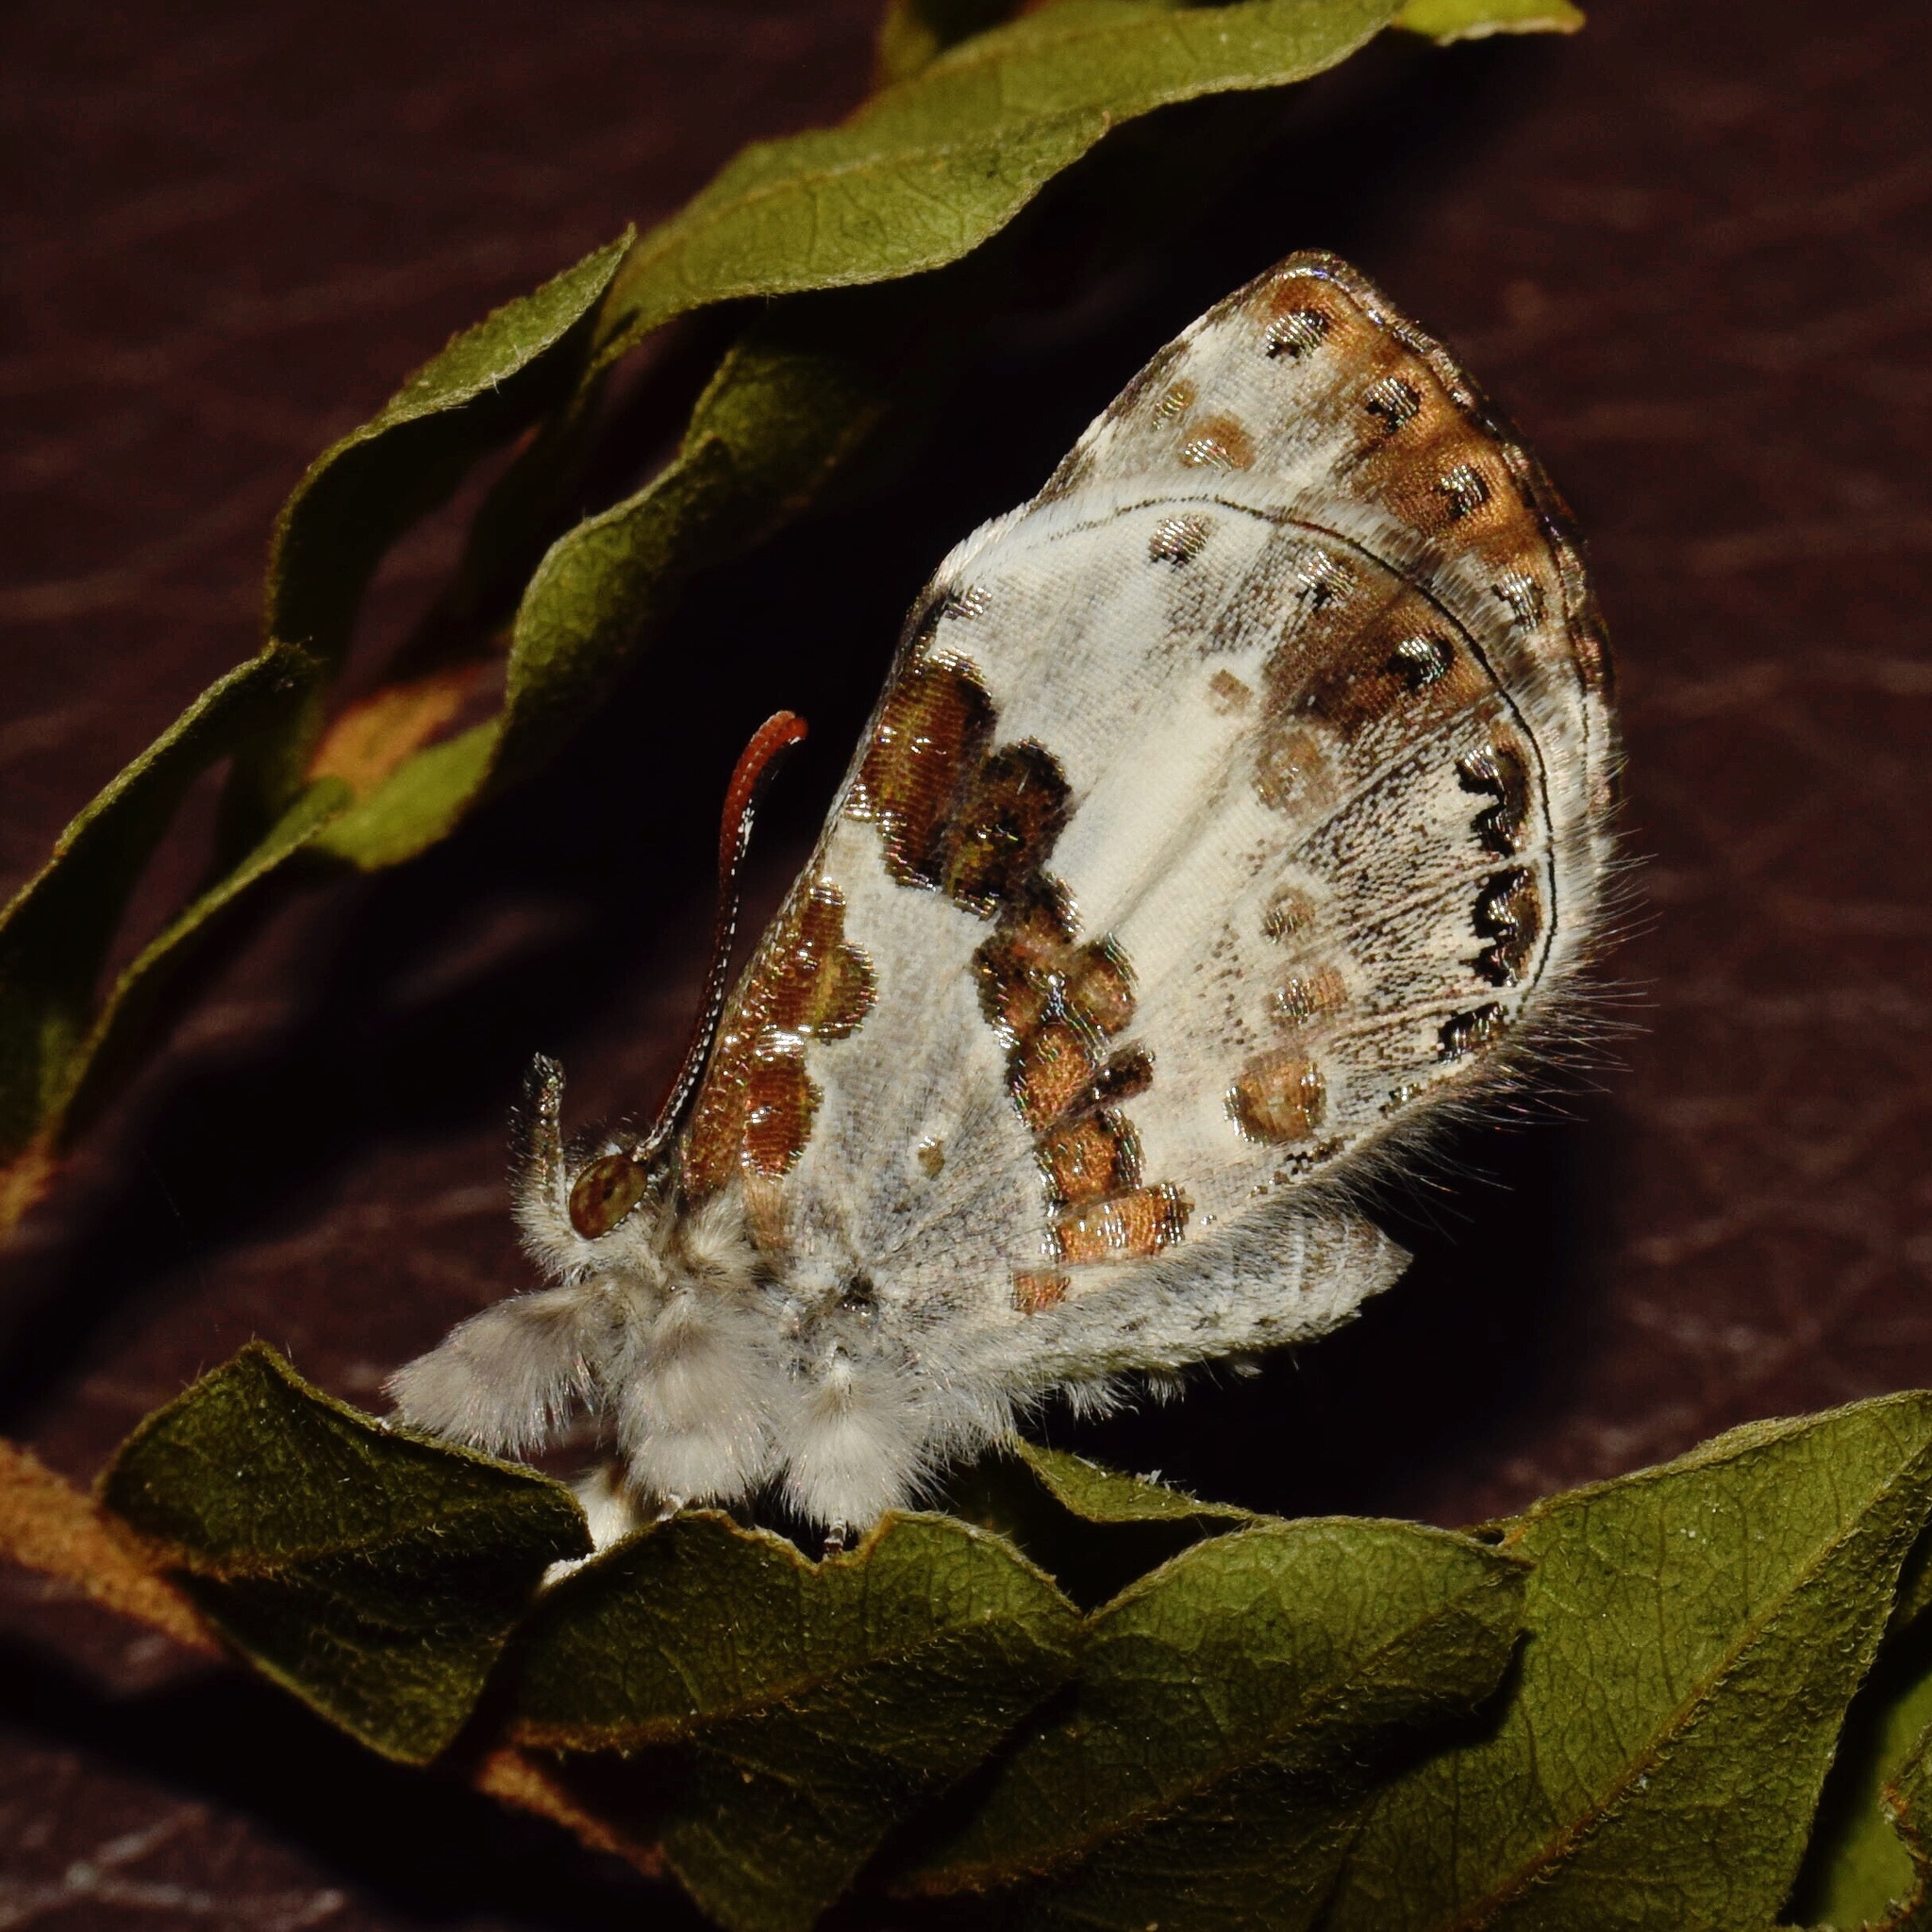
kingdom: Animalia
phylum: Arthropoda
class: Insecta
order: Lepidoptera
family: Lycaenidae
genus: Lachnocnema
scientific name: Lachnocnema bibulus
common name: Common woolly legs
